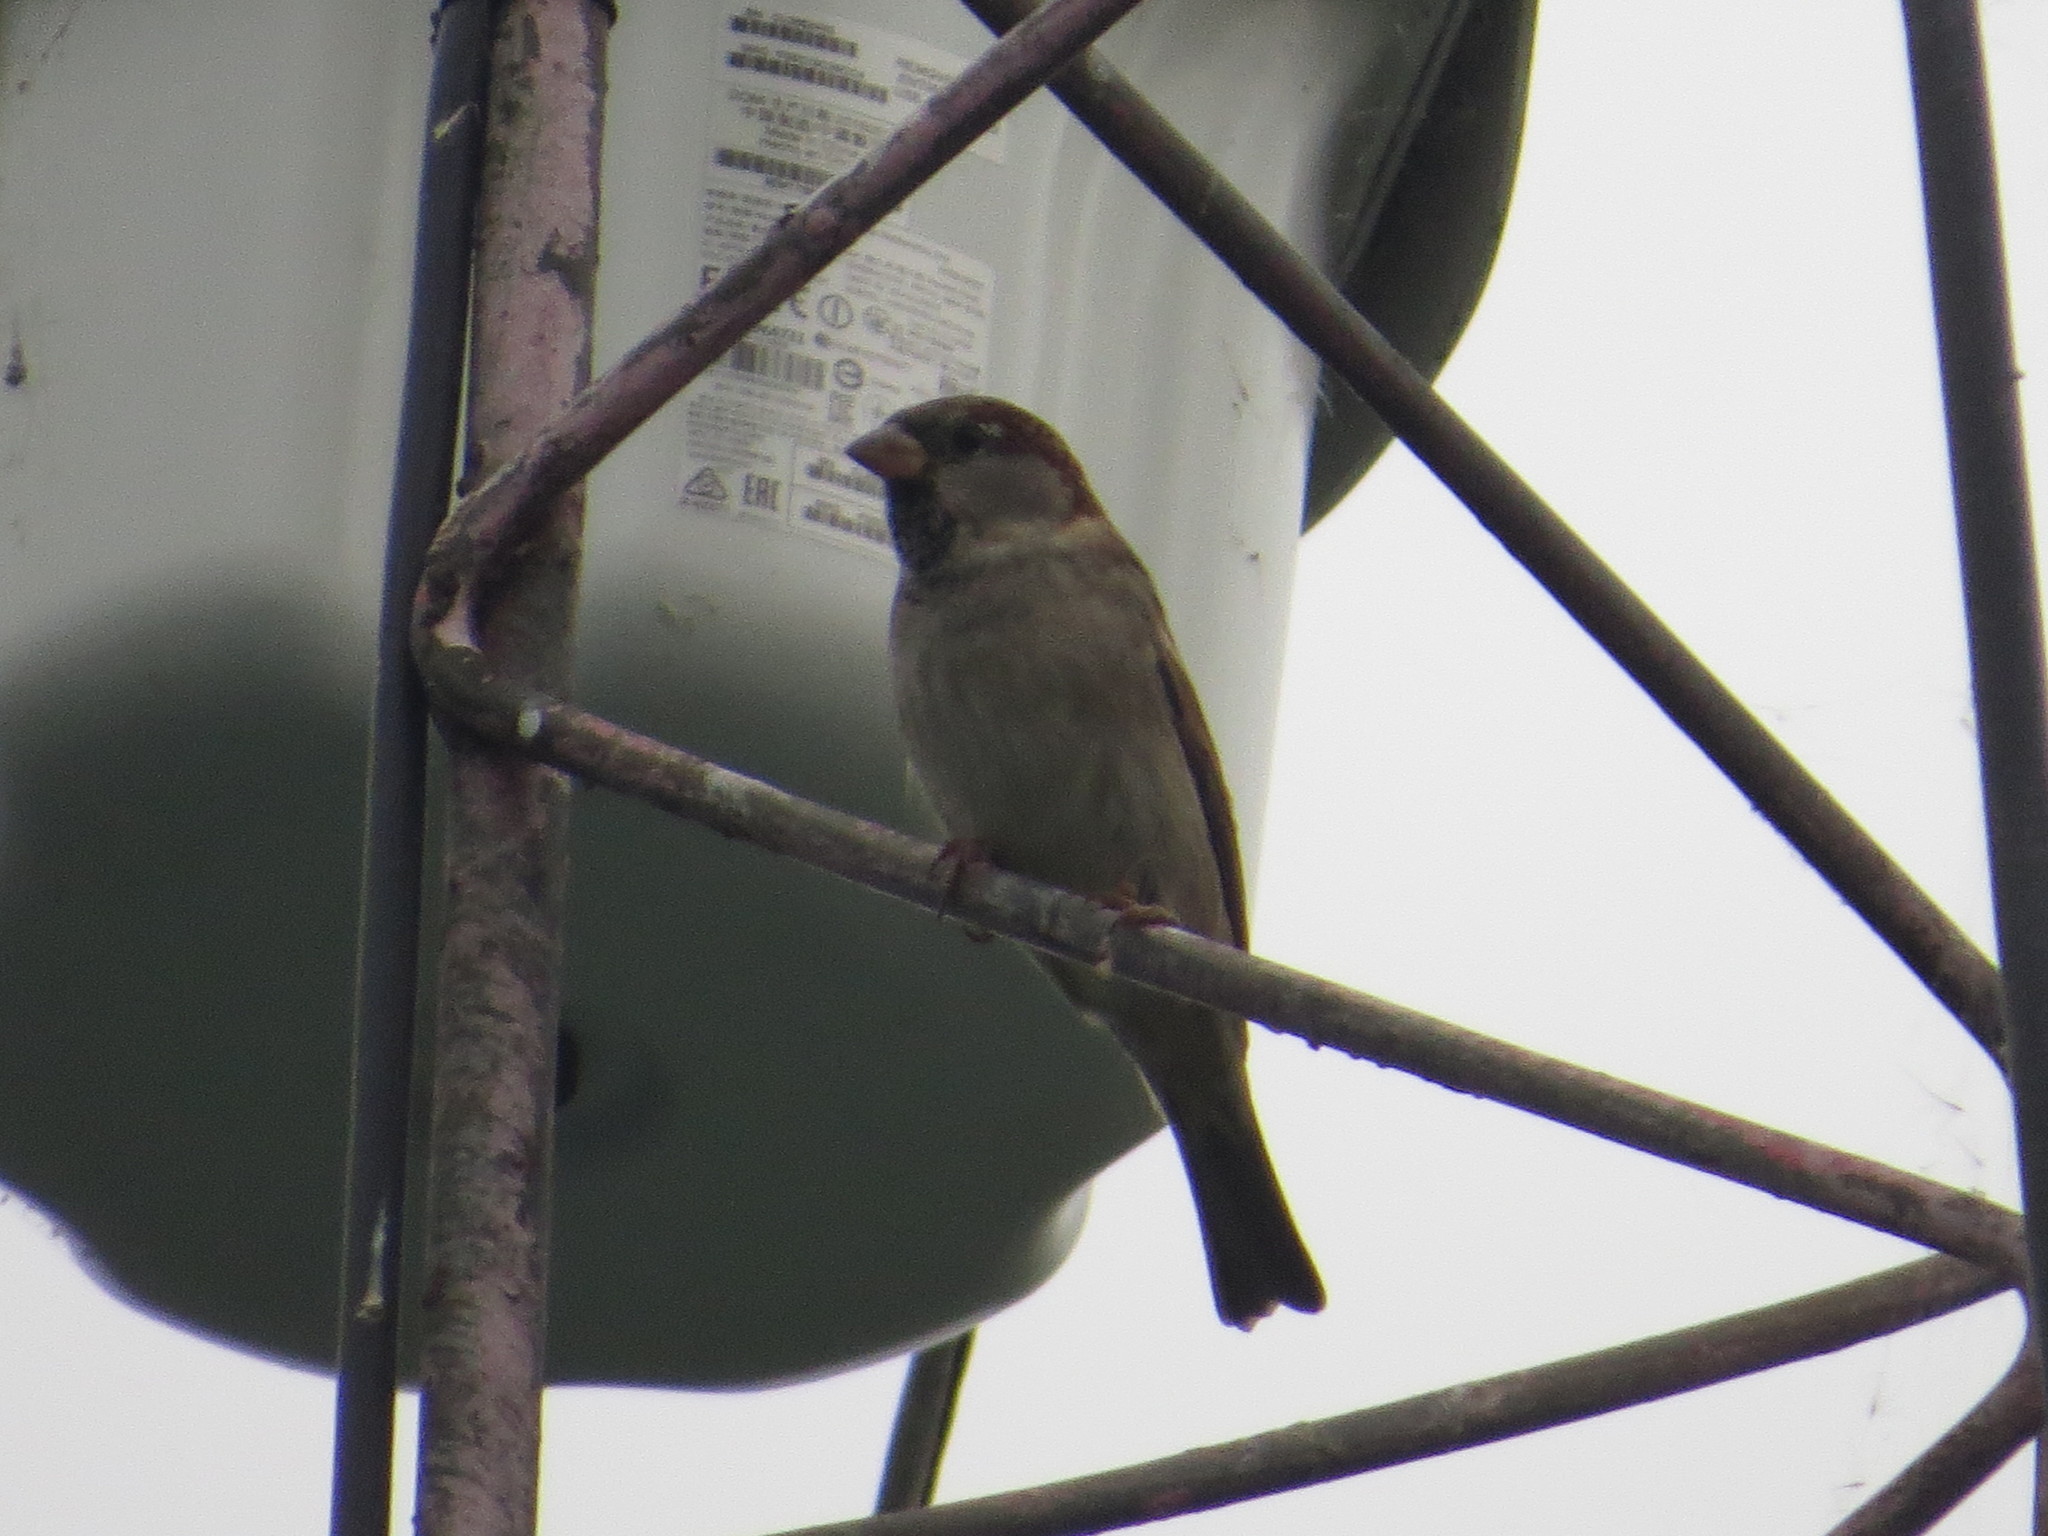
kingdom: Animalia
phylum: Chordata
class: Aves
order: Passeriformes
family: Passeridae
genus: Passer
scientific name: Passer domesticus
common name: House sparrow
